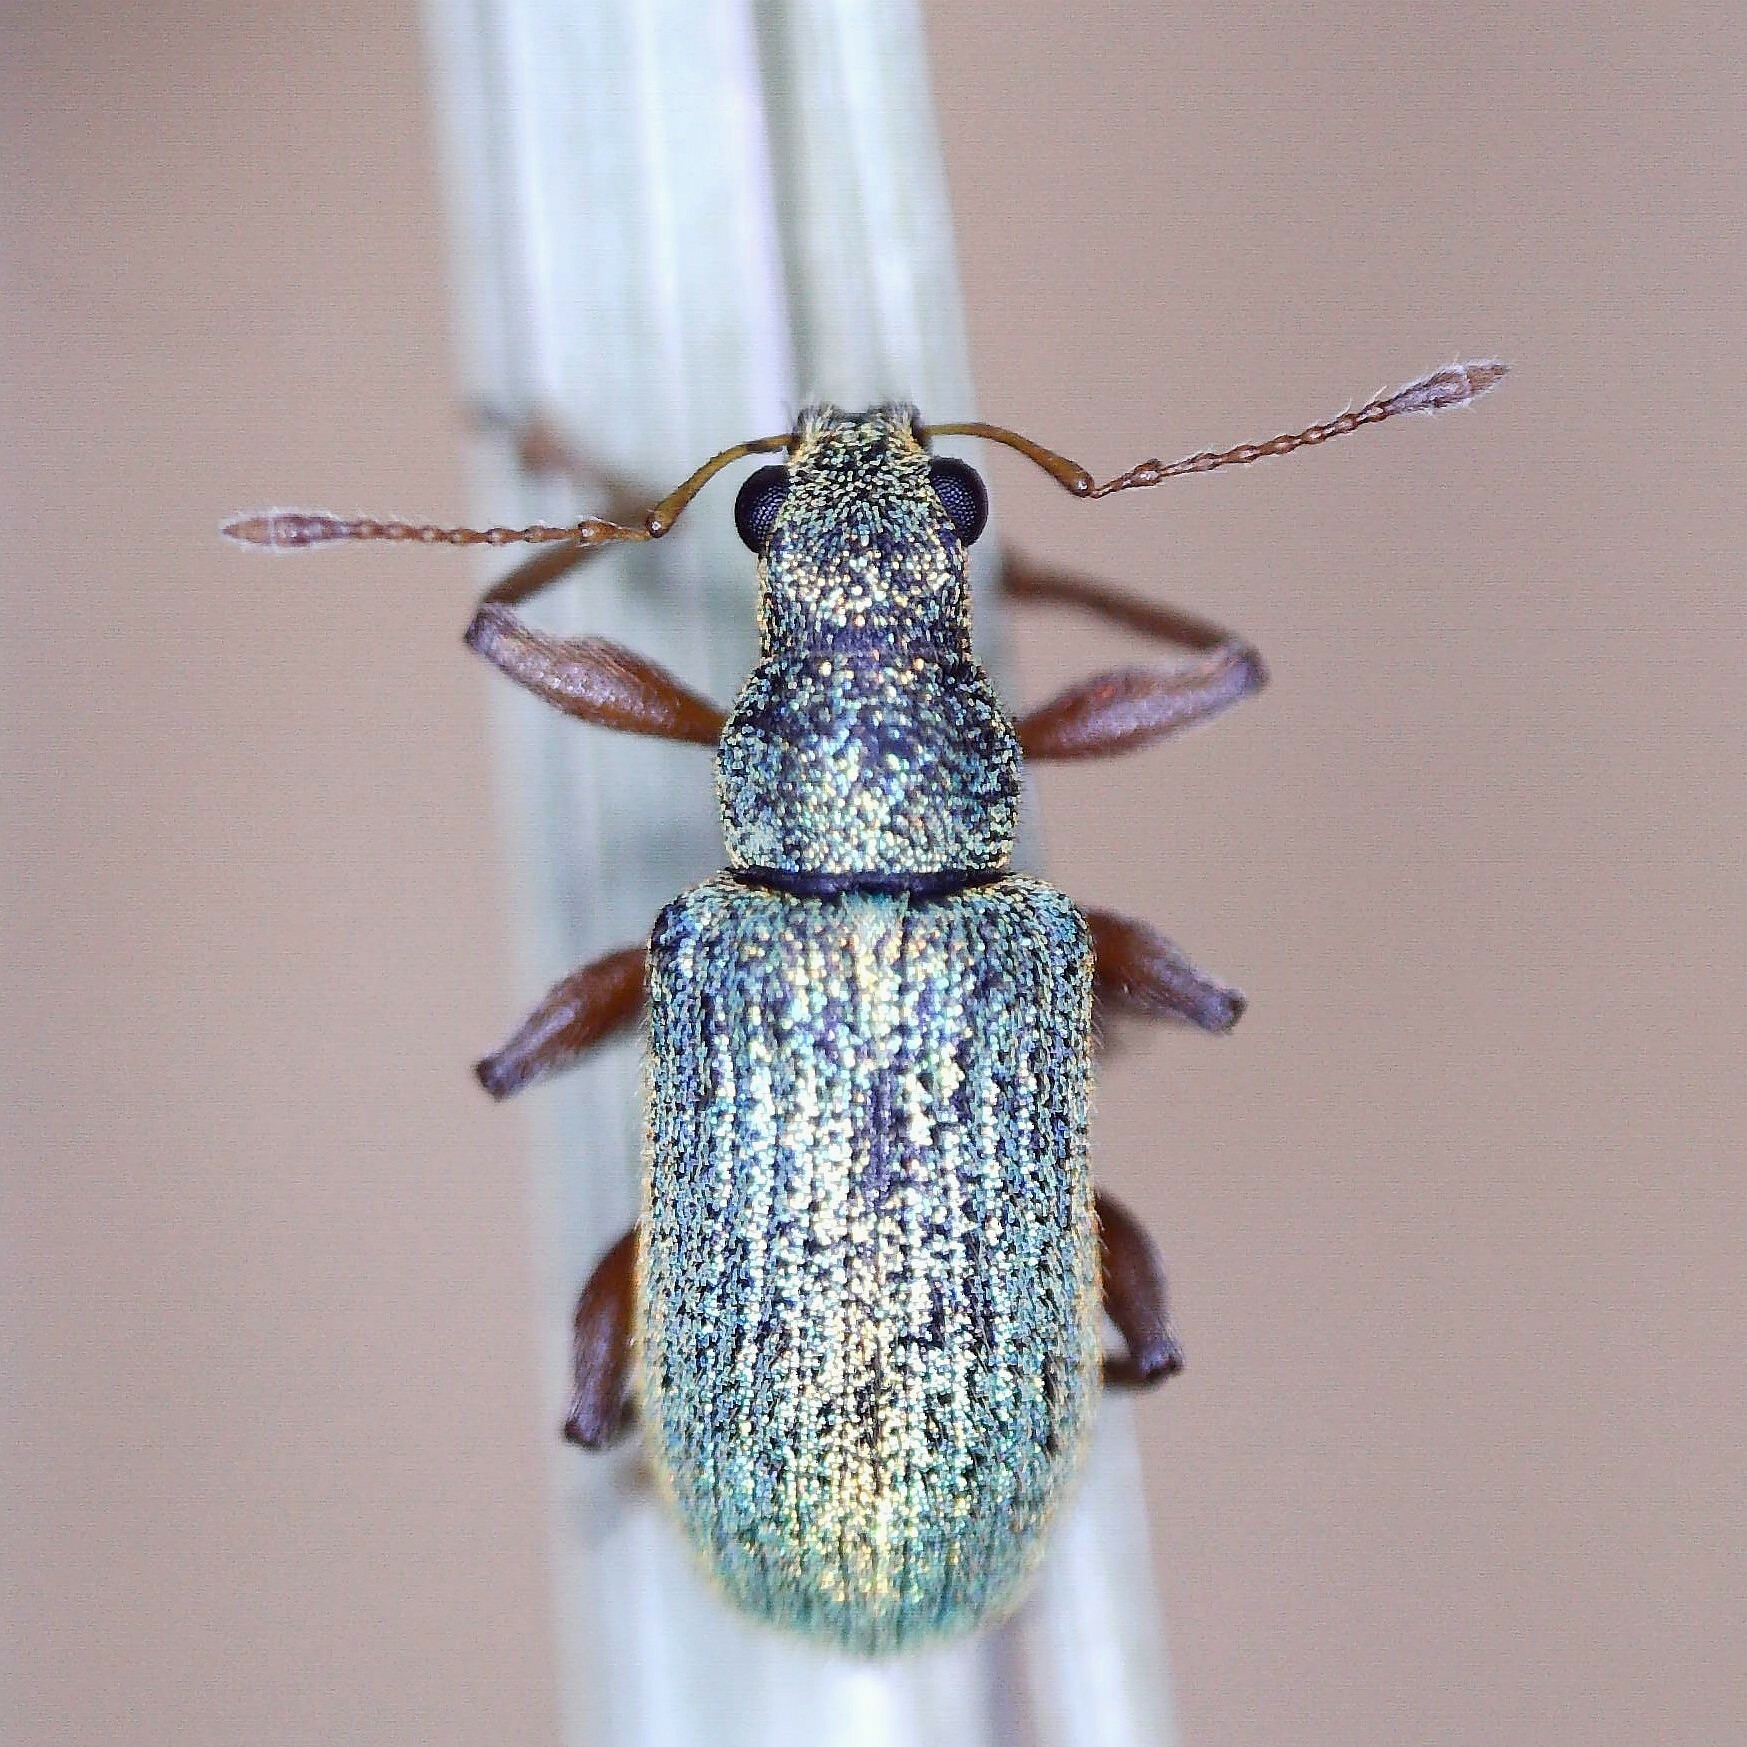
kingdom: Animalia
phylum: Arthropoda
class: Insecta
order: Coleoptera
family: Curculionidae
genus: Polydrusus
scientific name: Polydrusus pterygomalis
